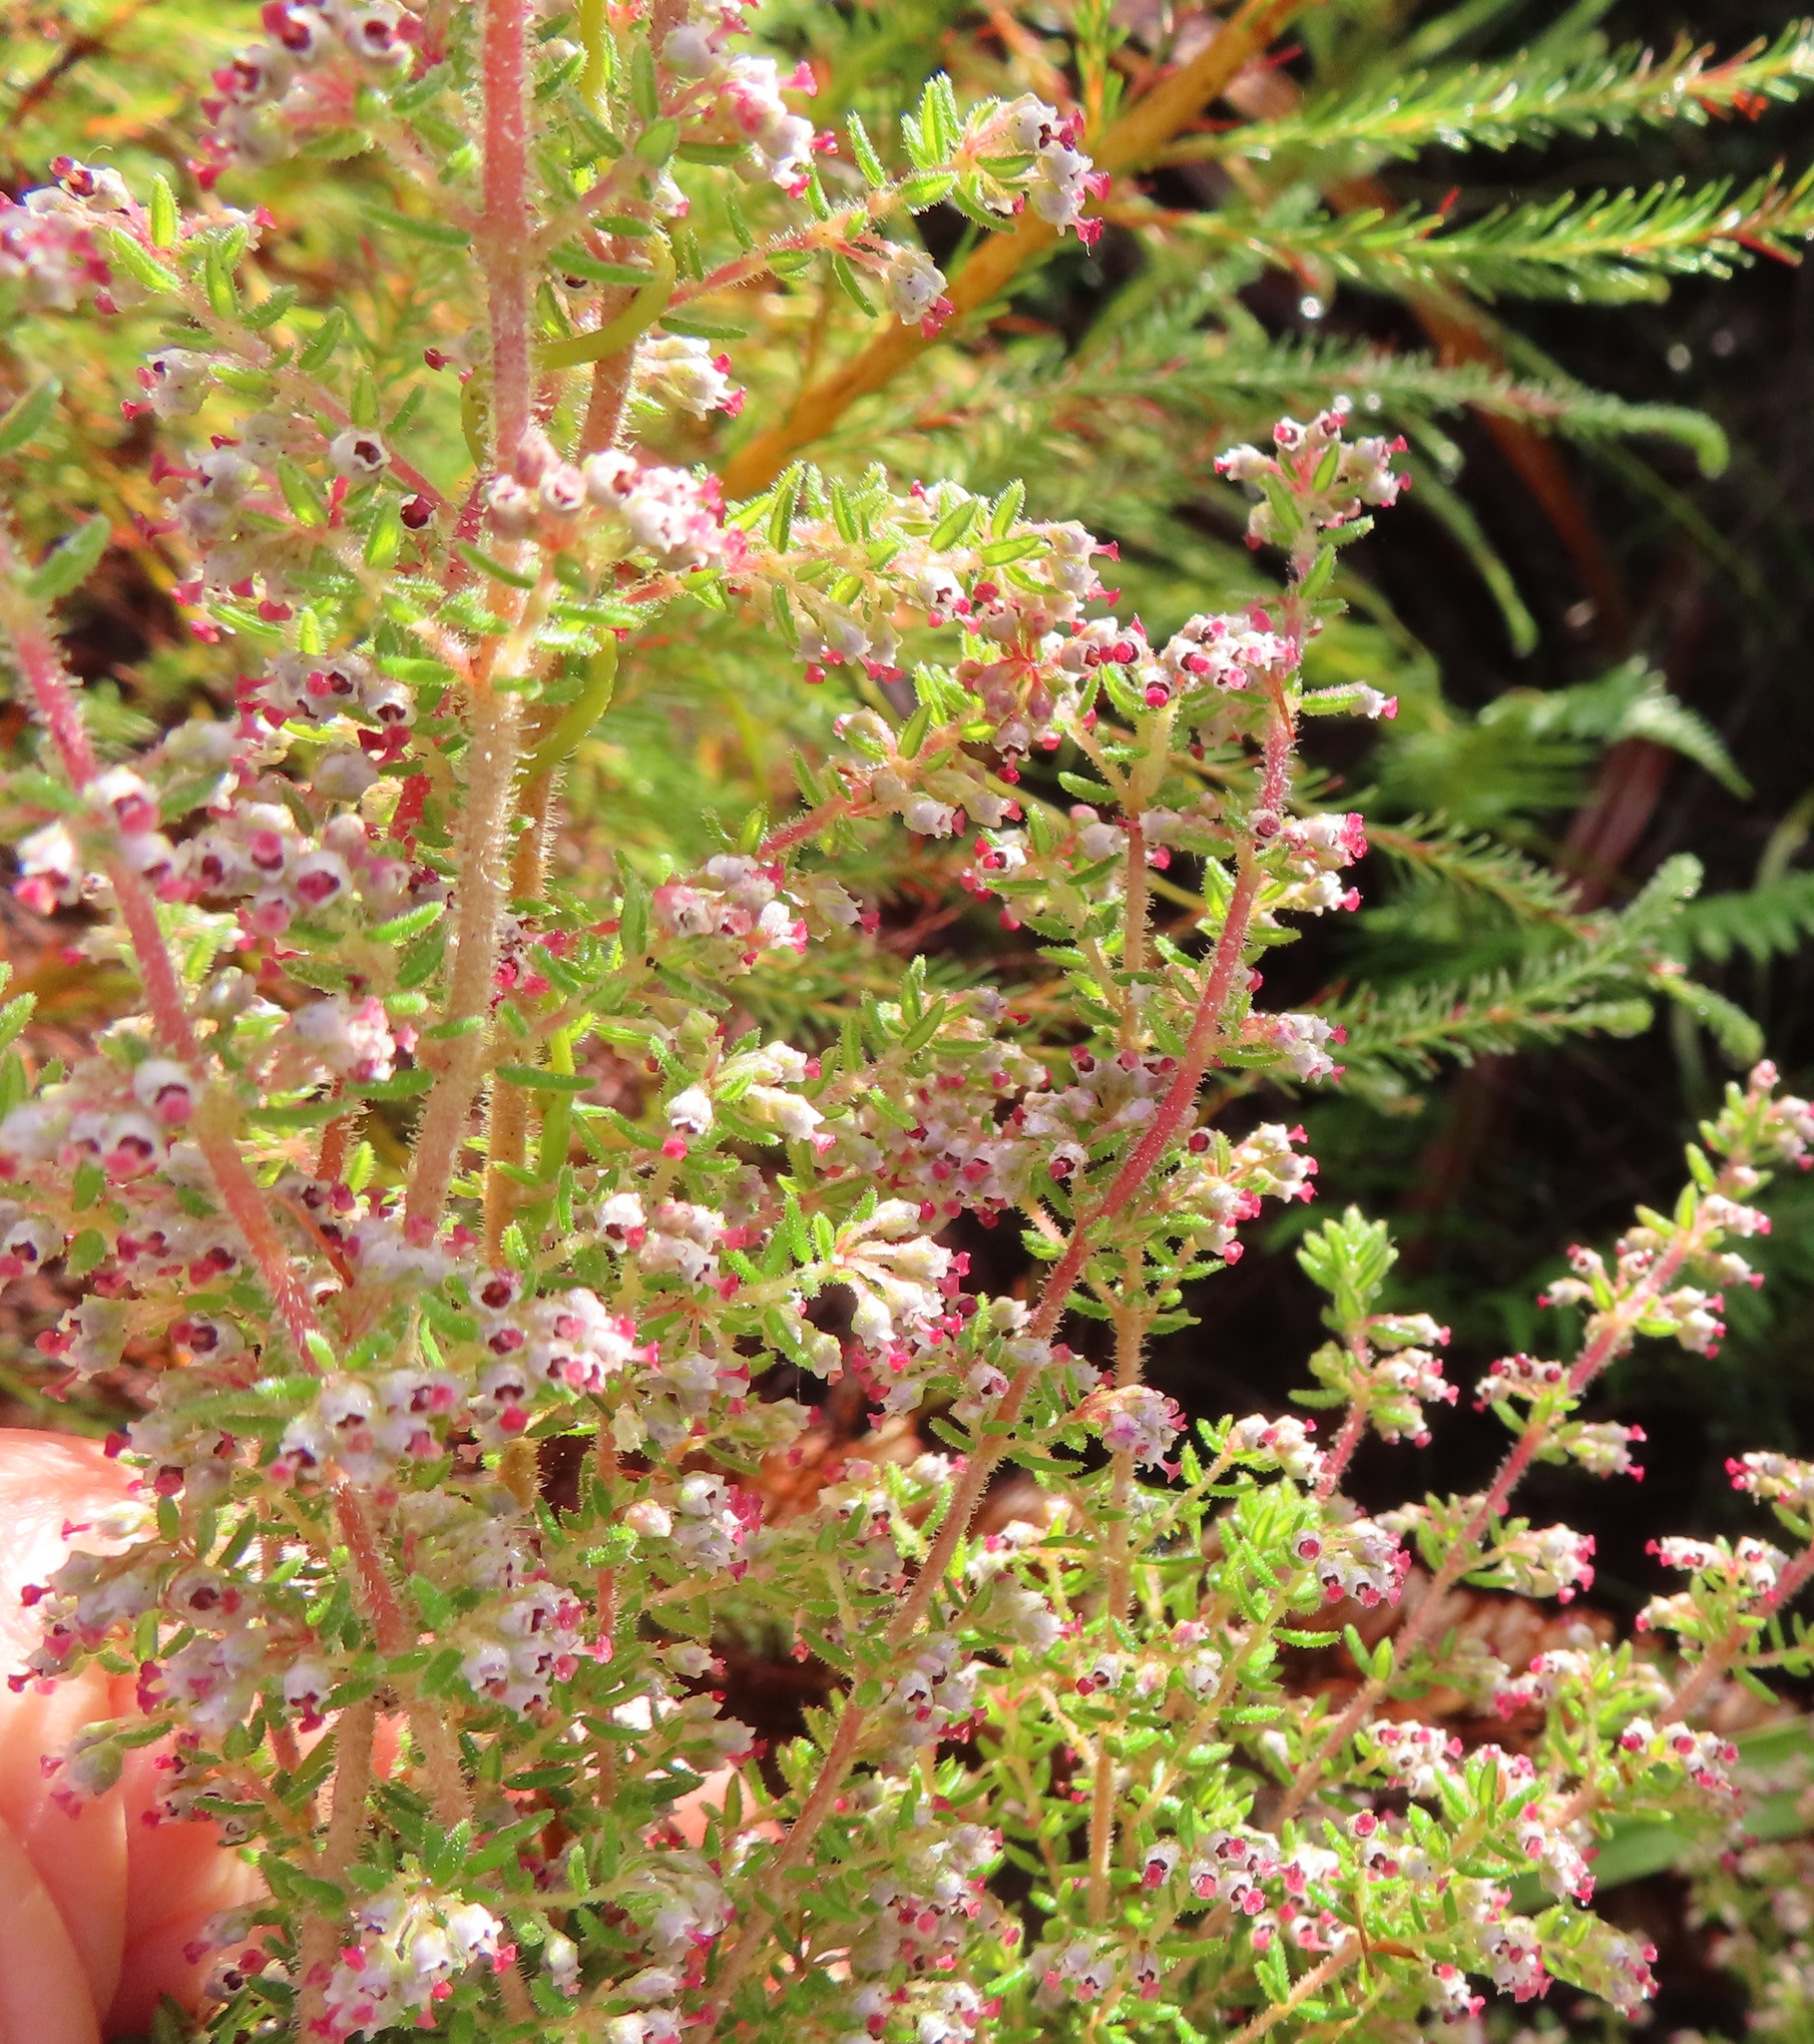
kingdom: Plantae
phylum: Tracheophyta
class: Magnoliopsida
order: Ericales
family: Ericaceae
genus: Erica
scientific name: Erica hispidula
